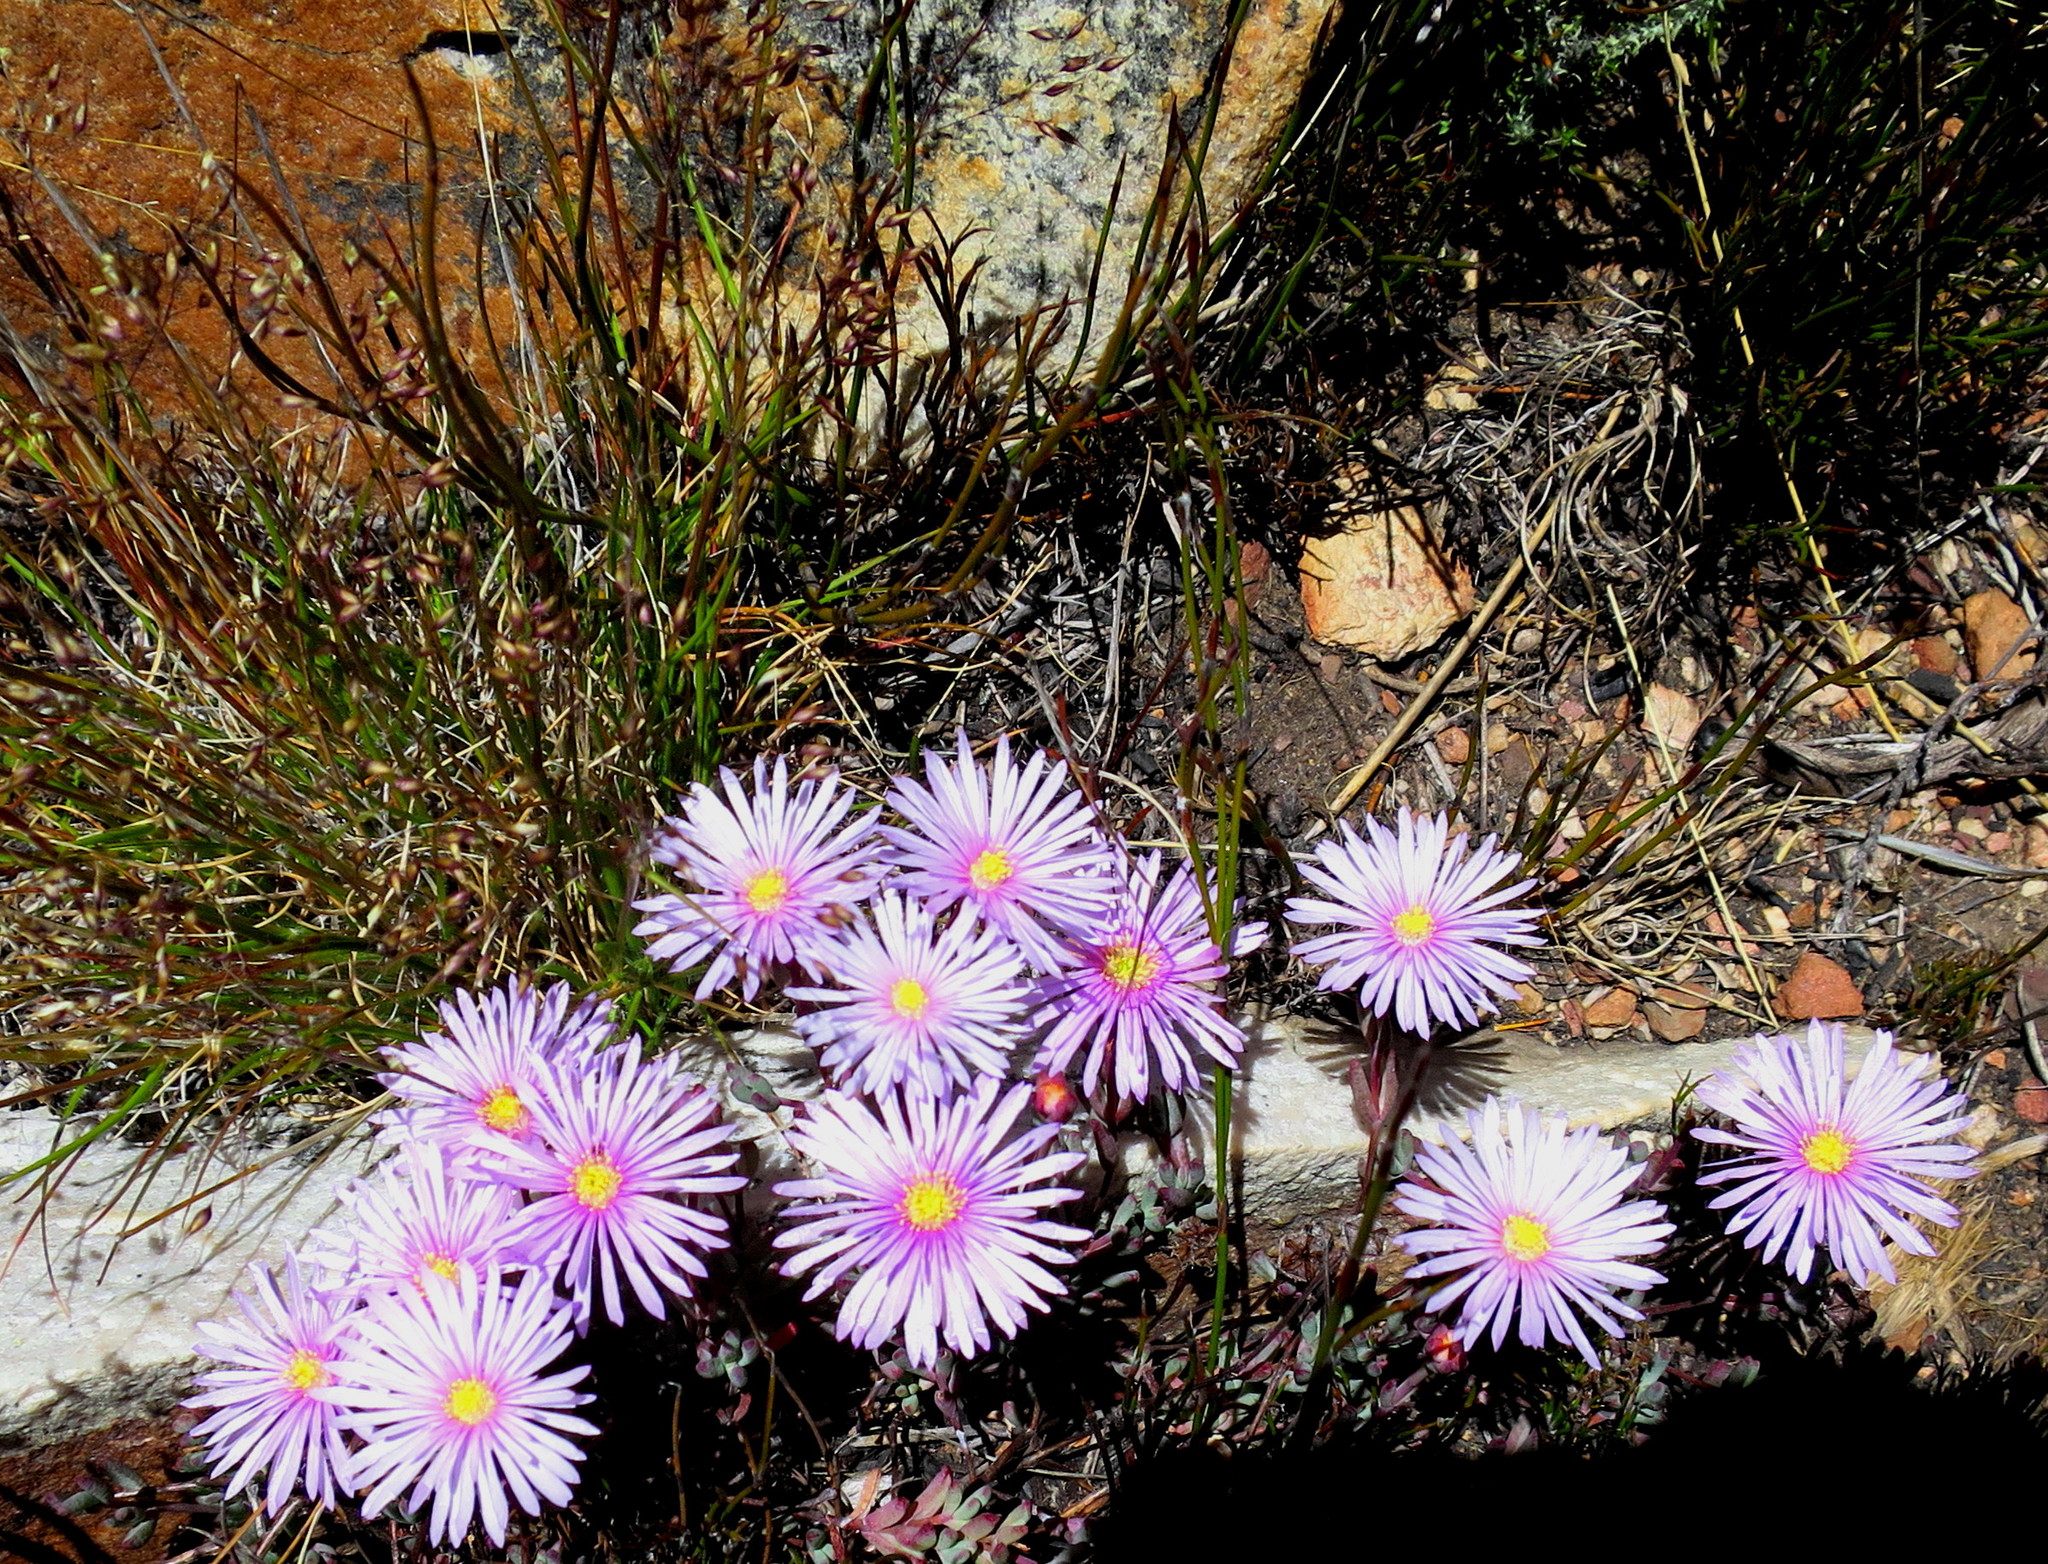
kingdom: Plantae
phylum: Tracheophyta
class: Magnoliopsida
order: Caryophyllales
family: Aizoaceae
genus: Lampranthus
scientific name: Lampranthus swartbergensis
